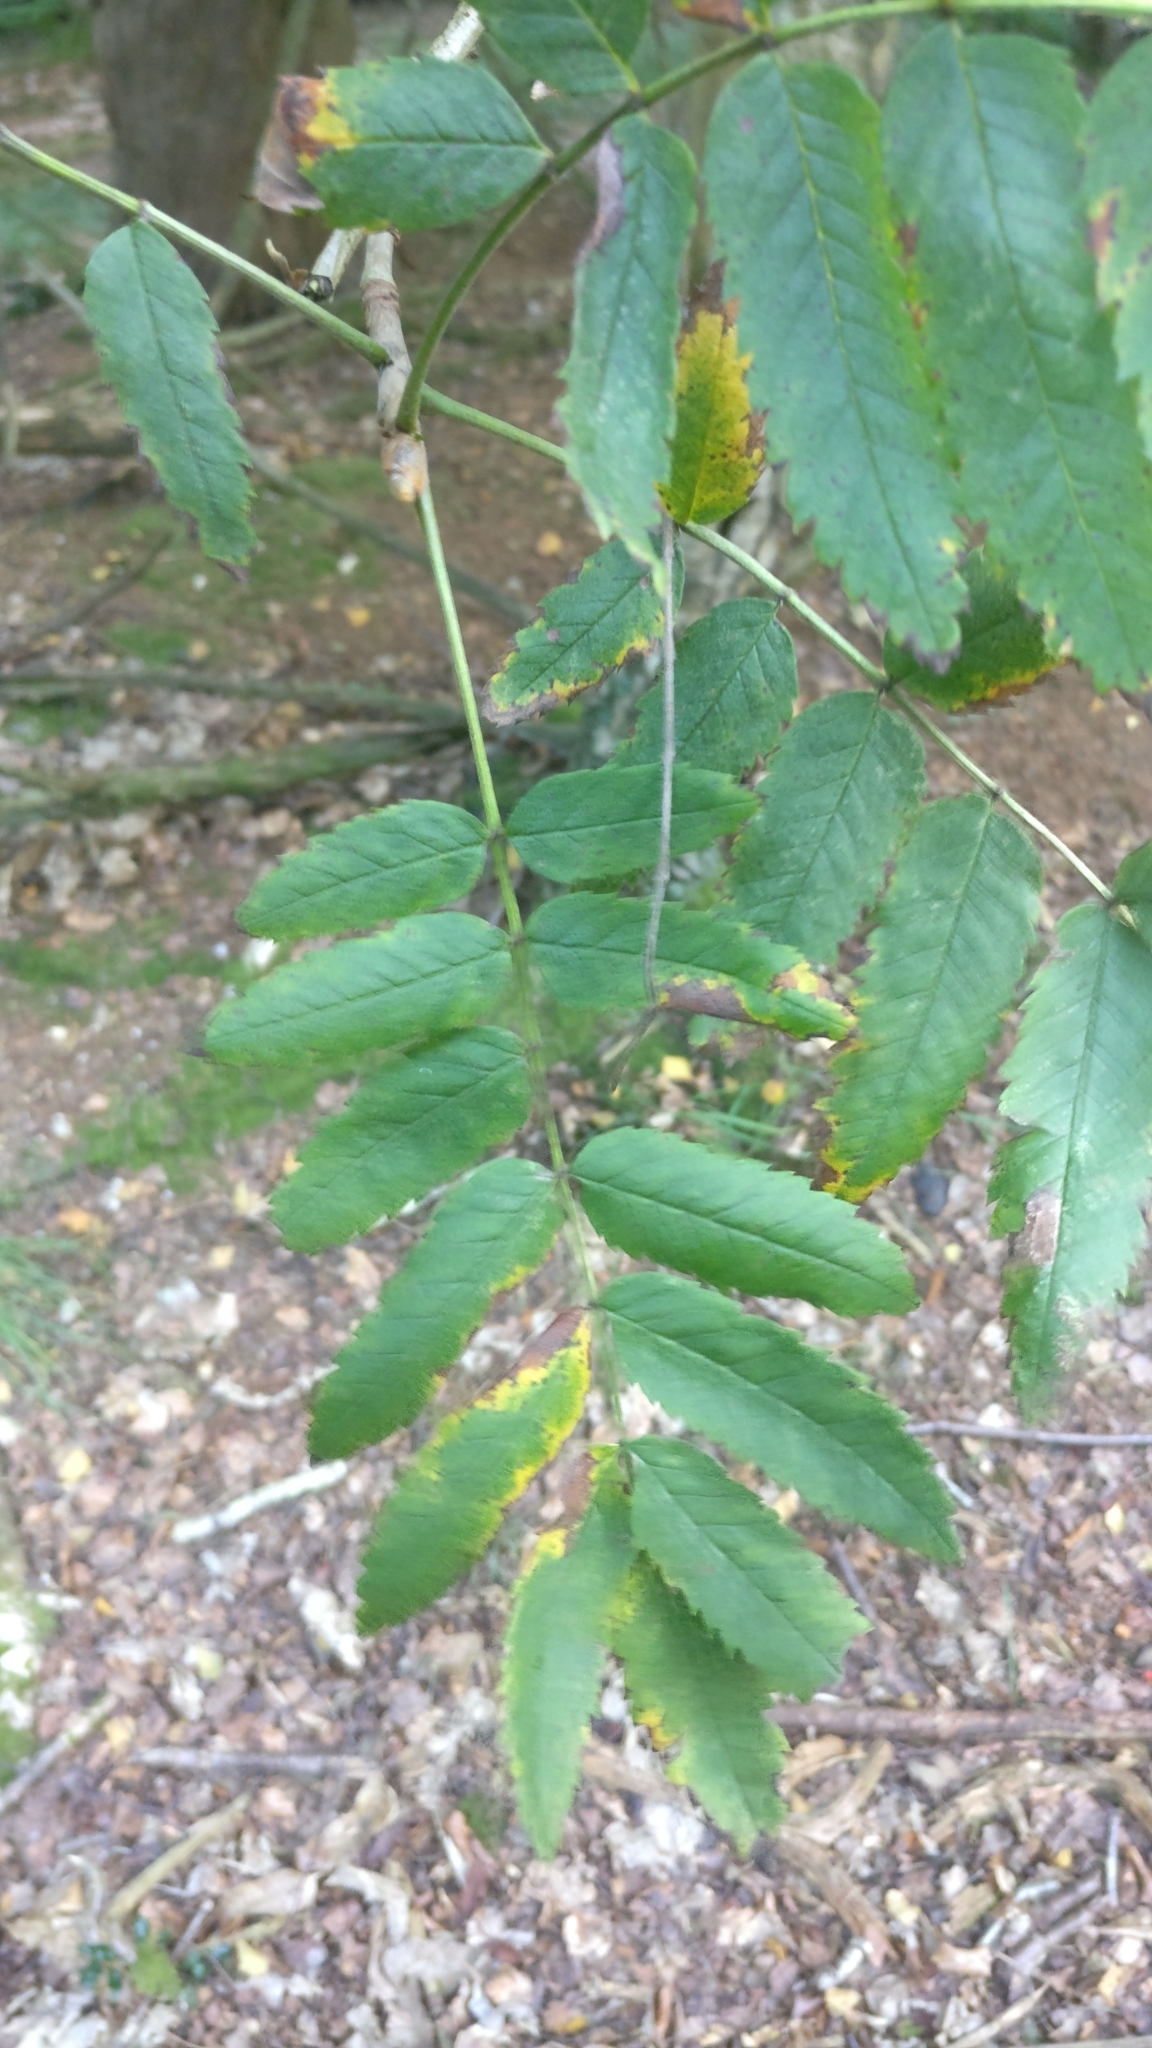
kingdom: Plantae
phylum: Tracheophyta
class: Magnoliopsida
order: Rosales
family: Rosaceae
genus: Sorbus
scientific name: Sorbus aucuparia
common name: Rowan
